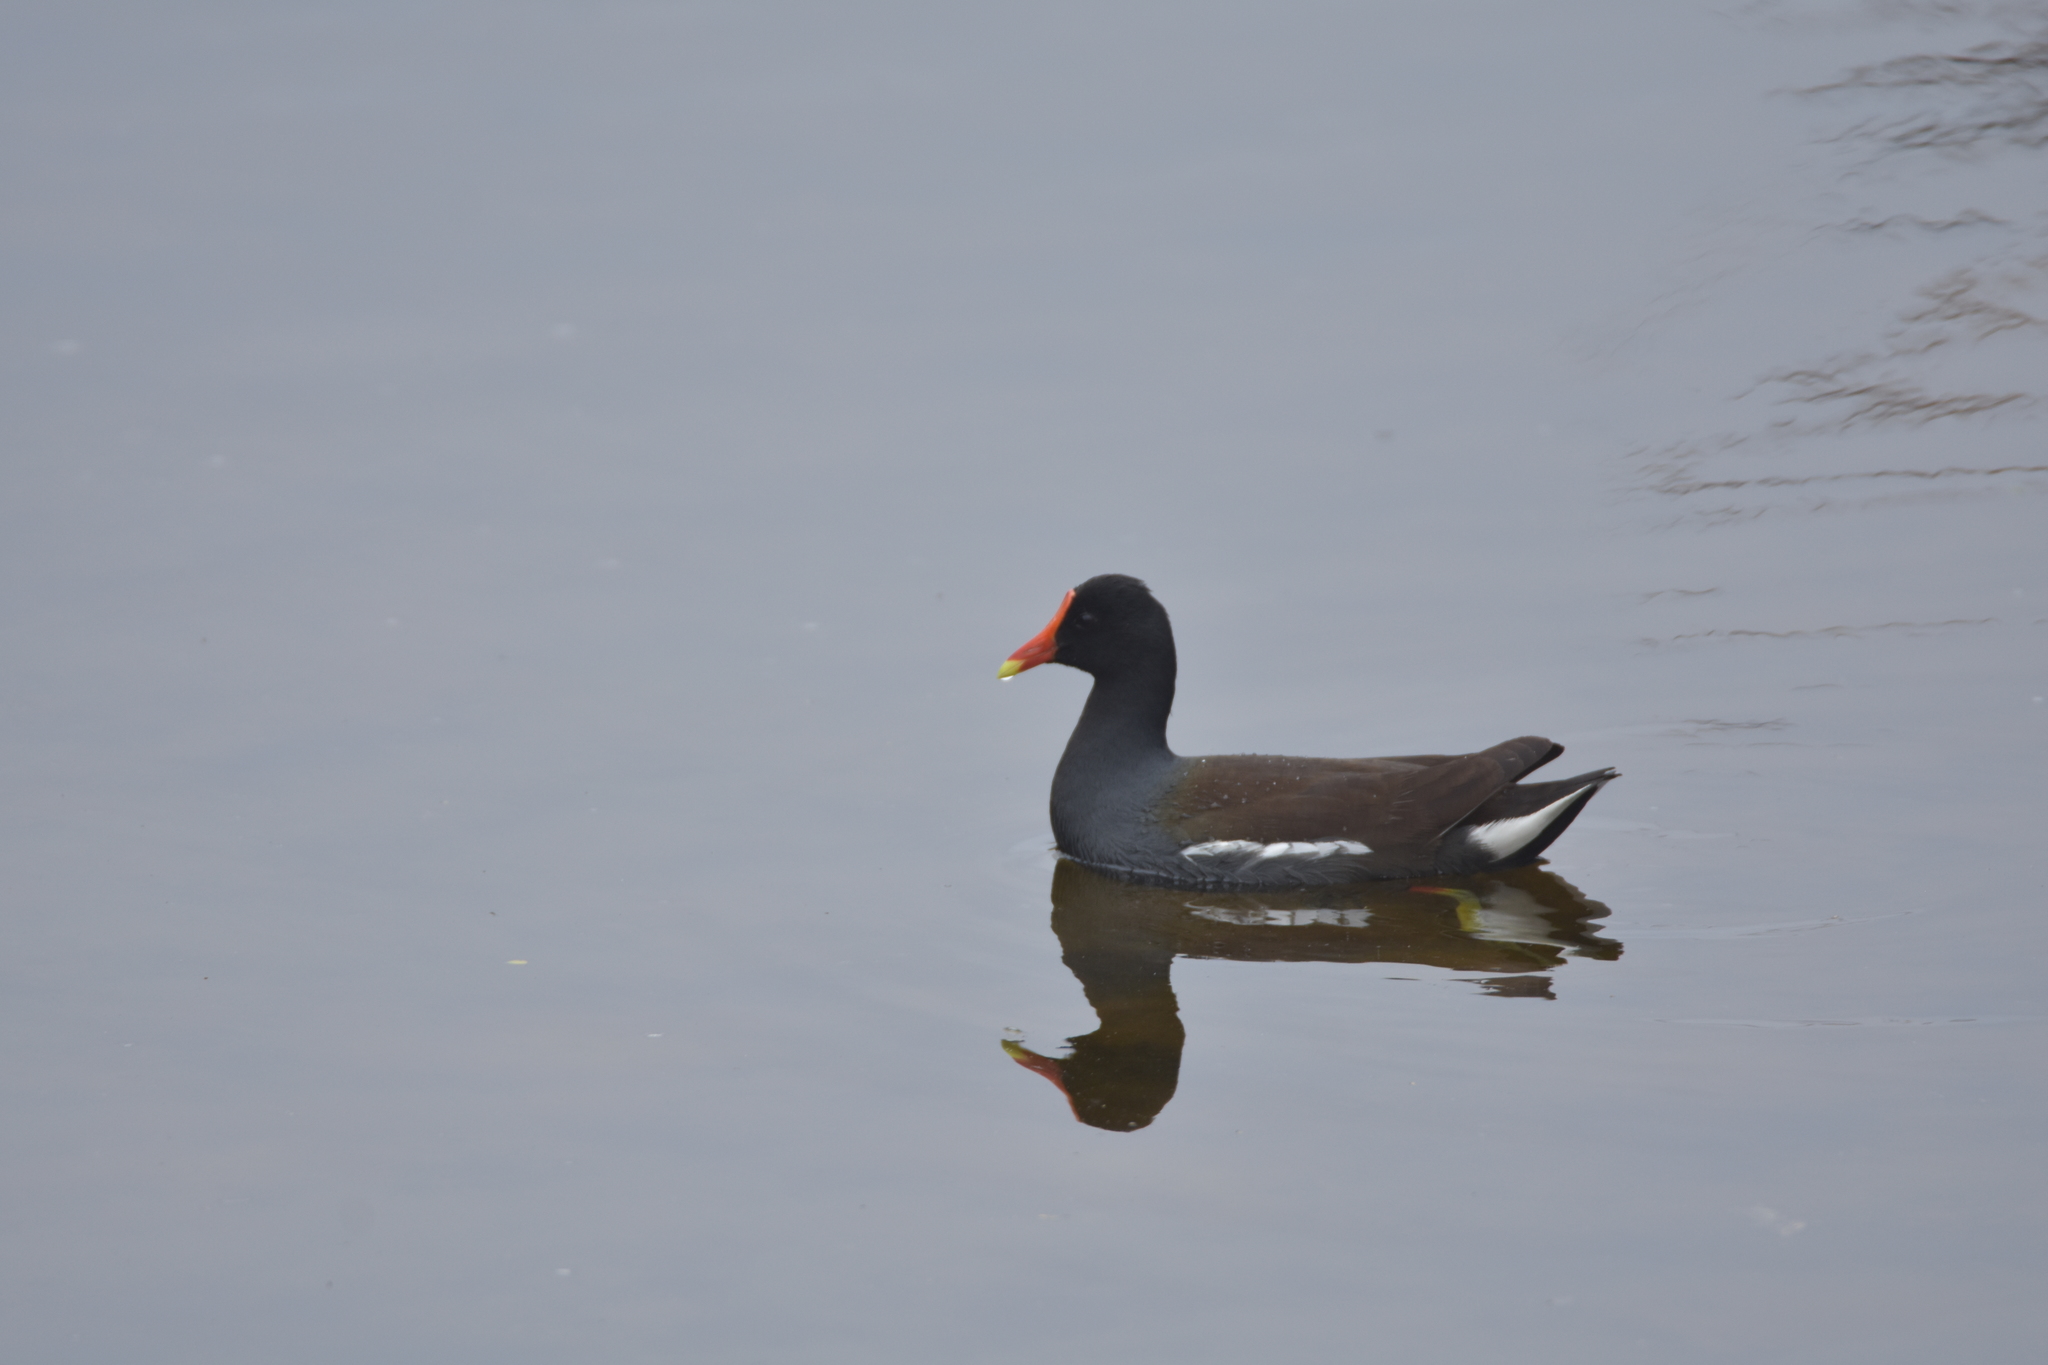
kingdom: Animalia
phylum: Chordata
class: Aves
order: Gruiformes
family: Rallidae
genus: Gallinula
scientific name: Gallinula chloropus
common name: Common moorhen
